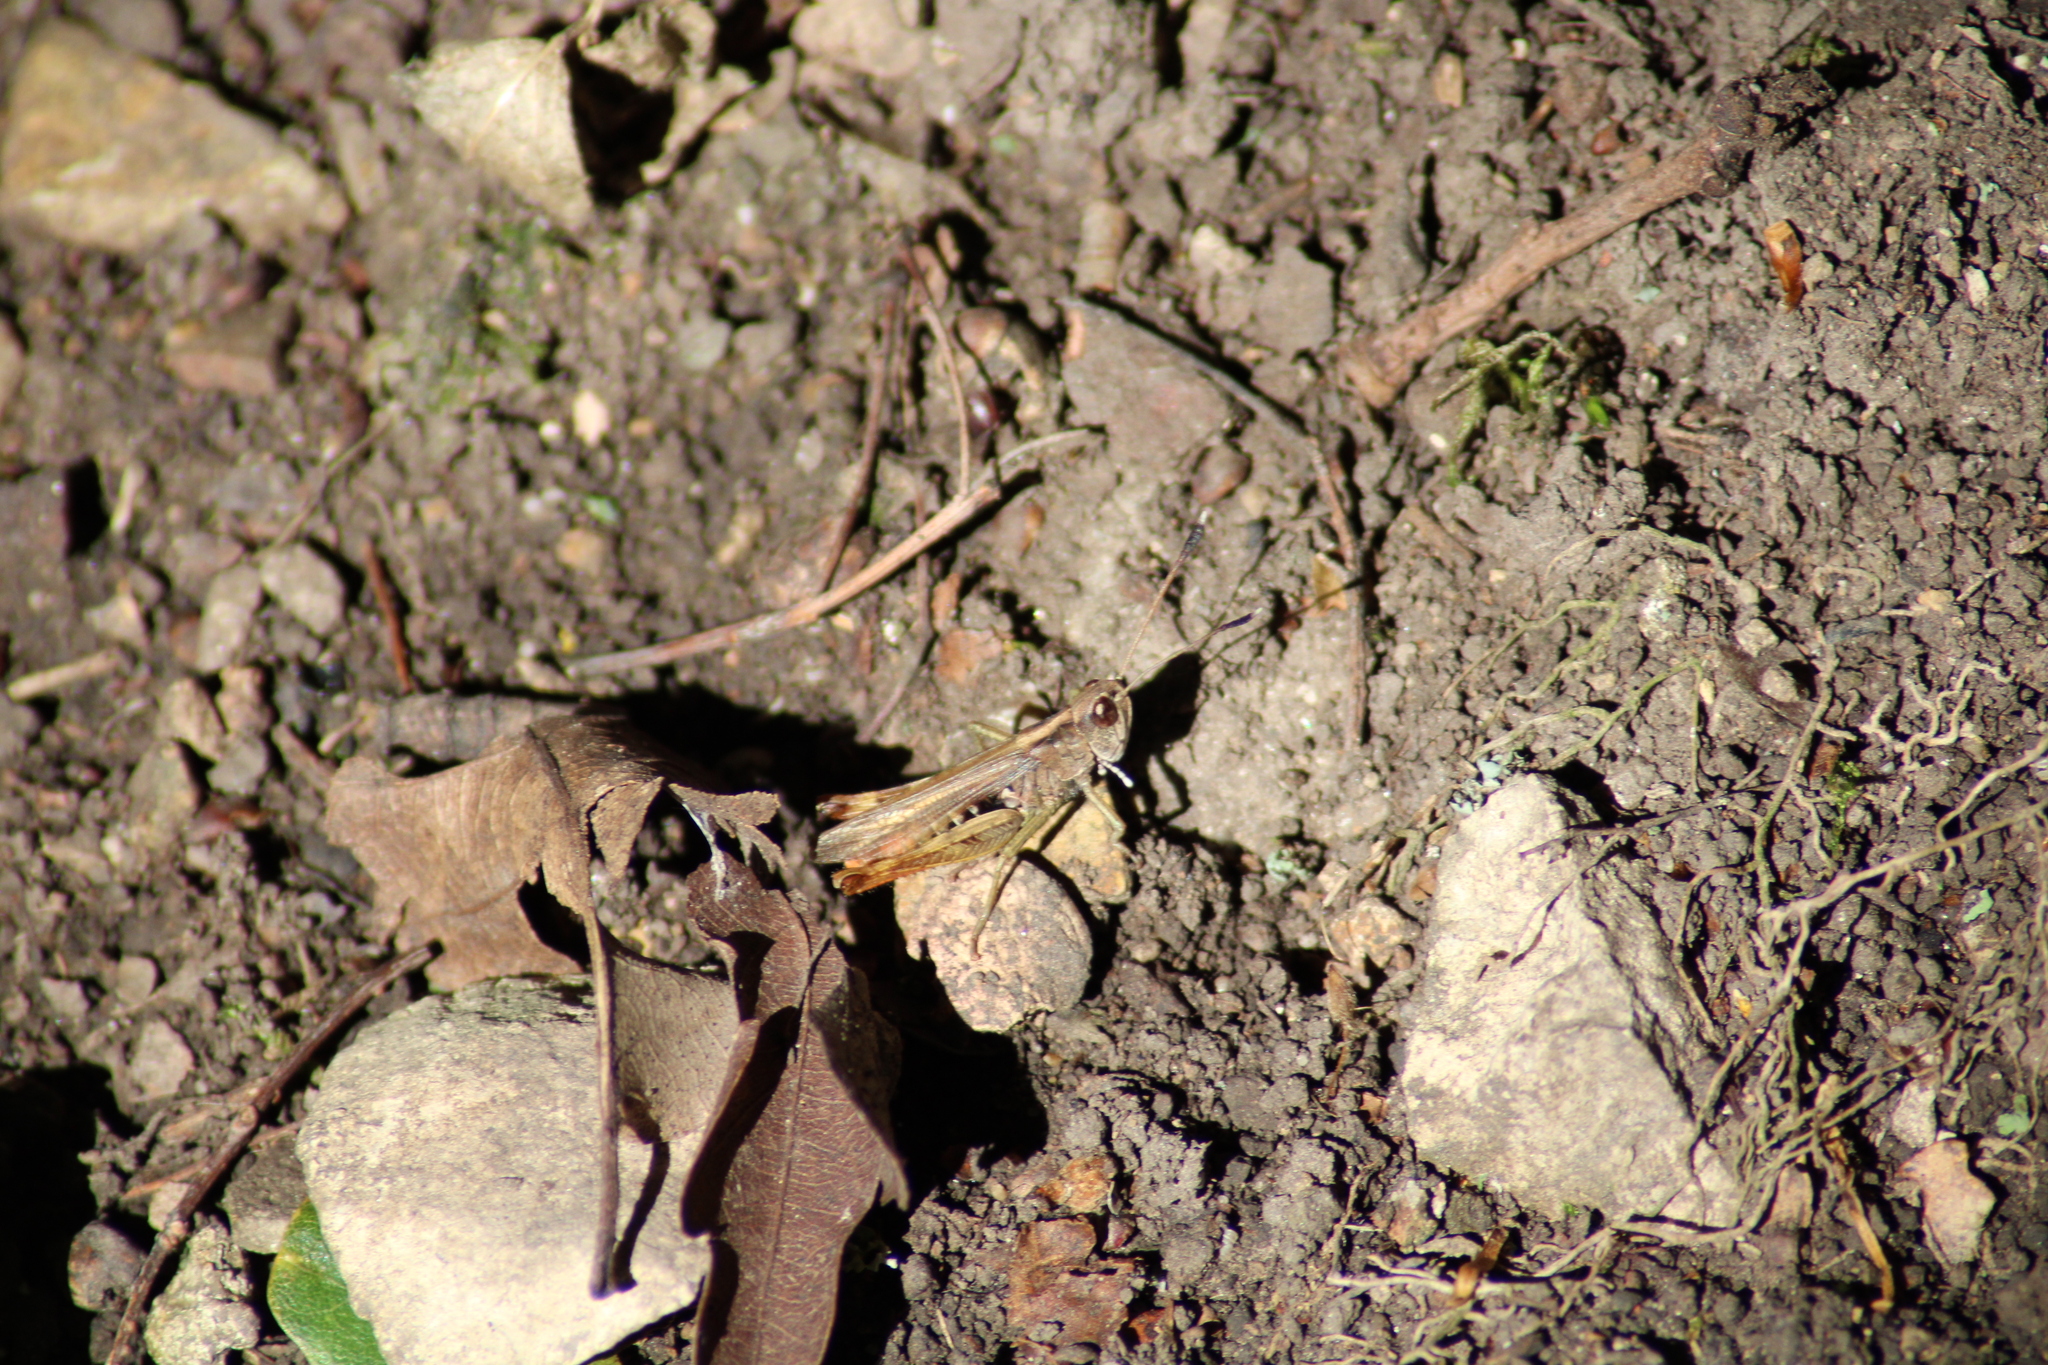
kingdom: Animalia
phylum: Arthropoda
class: Insecta
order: Orthoptera
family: Acrididae
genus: Gomphocerippus
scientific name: Gomphocerippus rufus
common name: Rufous grasshopper
